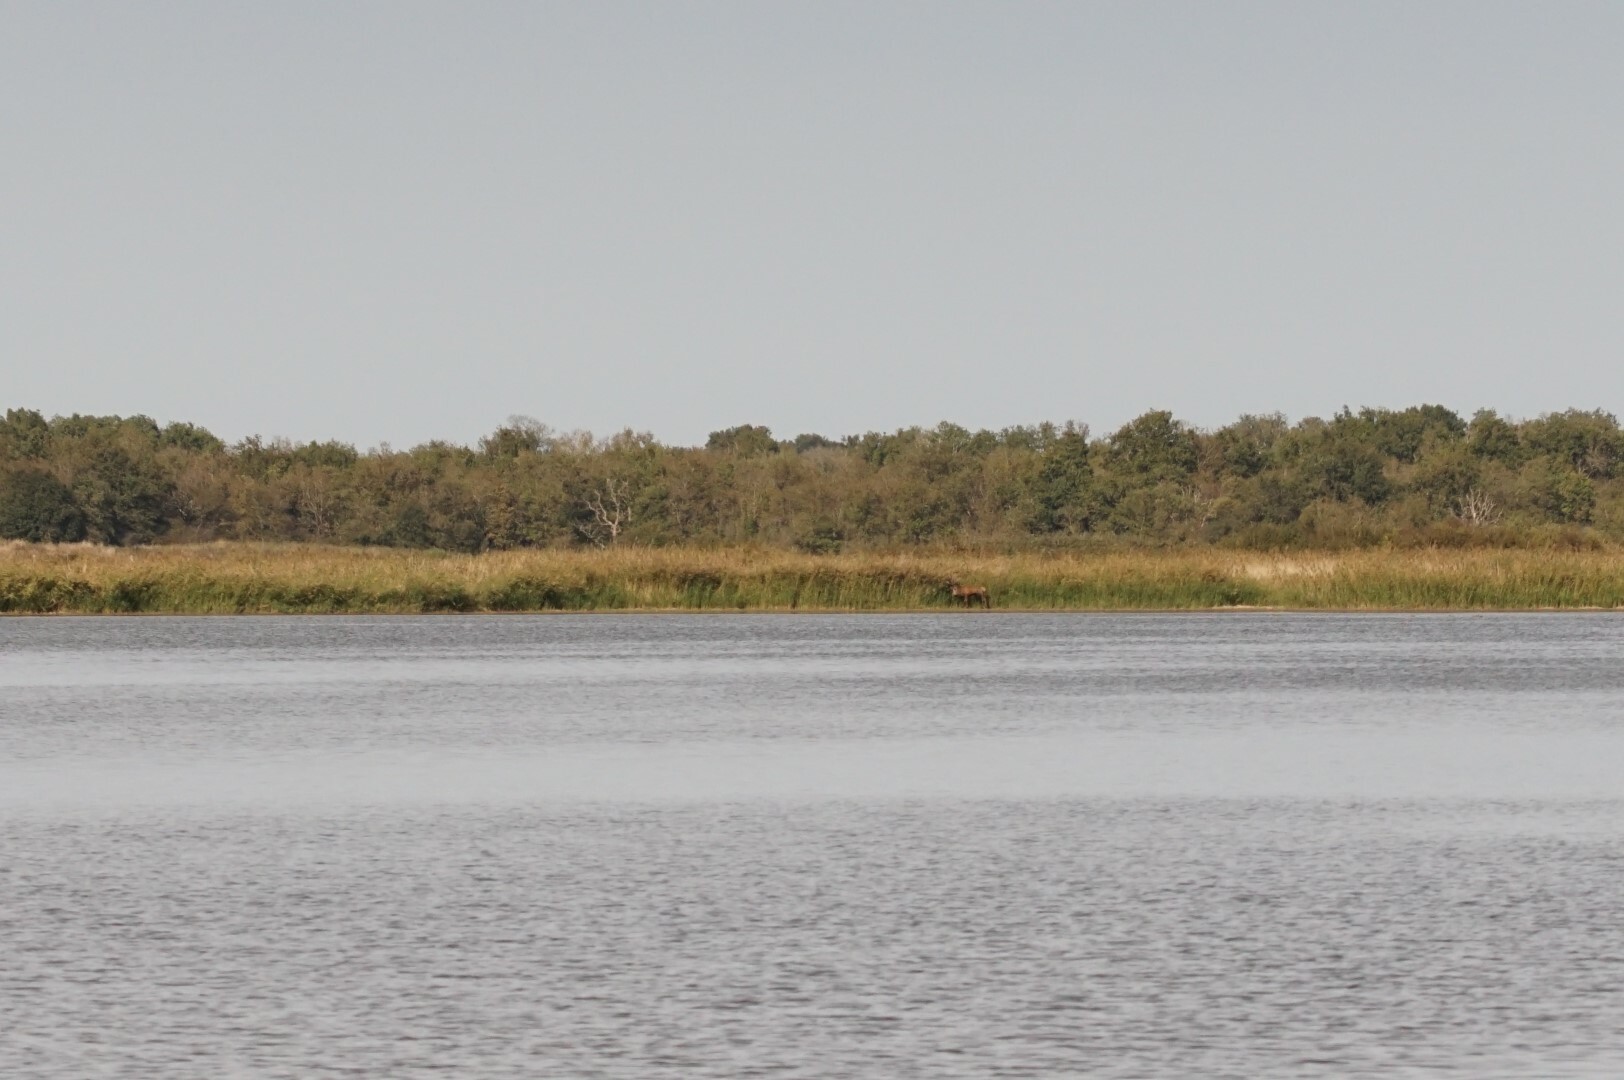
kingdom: Animalia
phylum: Chordata
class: Mammalia
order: Artiodactyla
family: Cervidae
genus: Cervus
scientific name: Cervus elaphus
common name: Red deer
